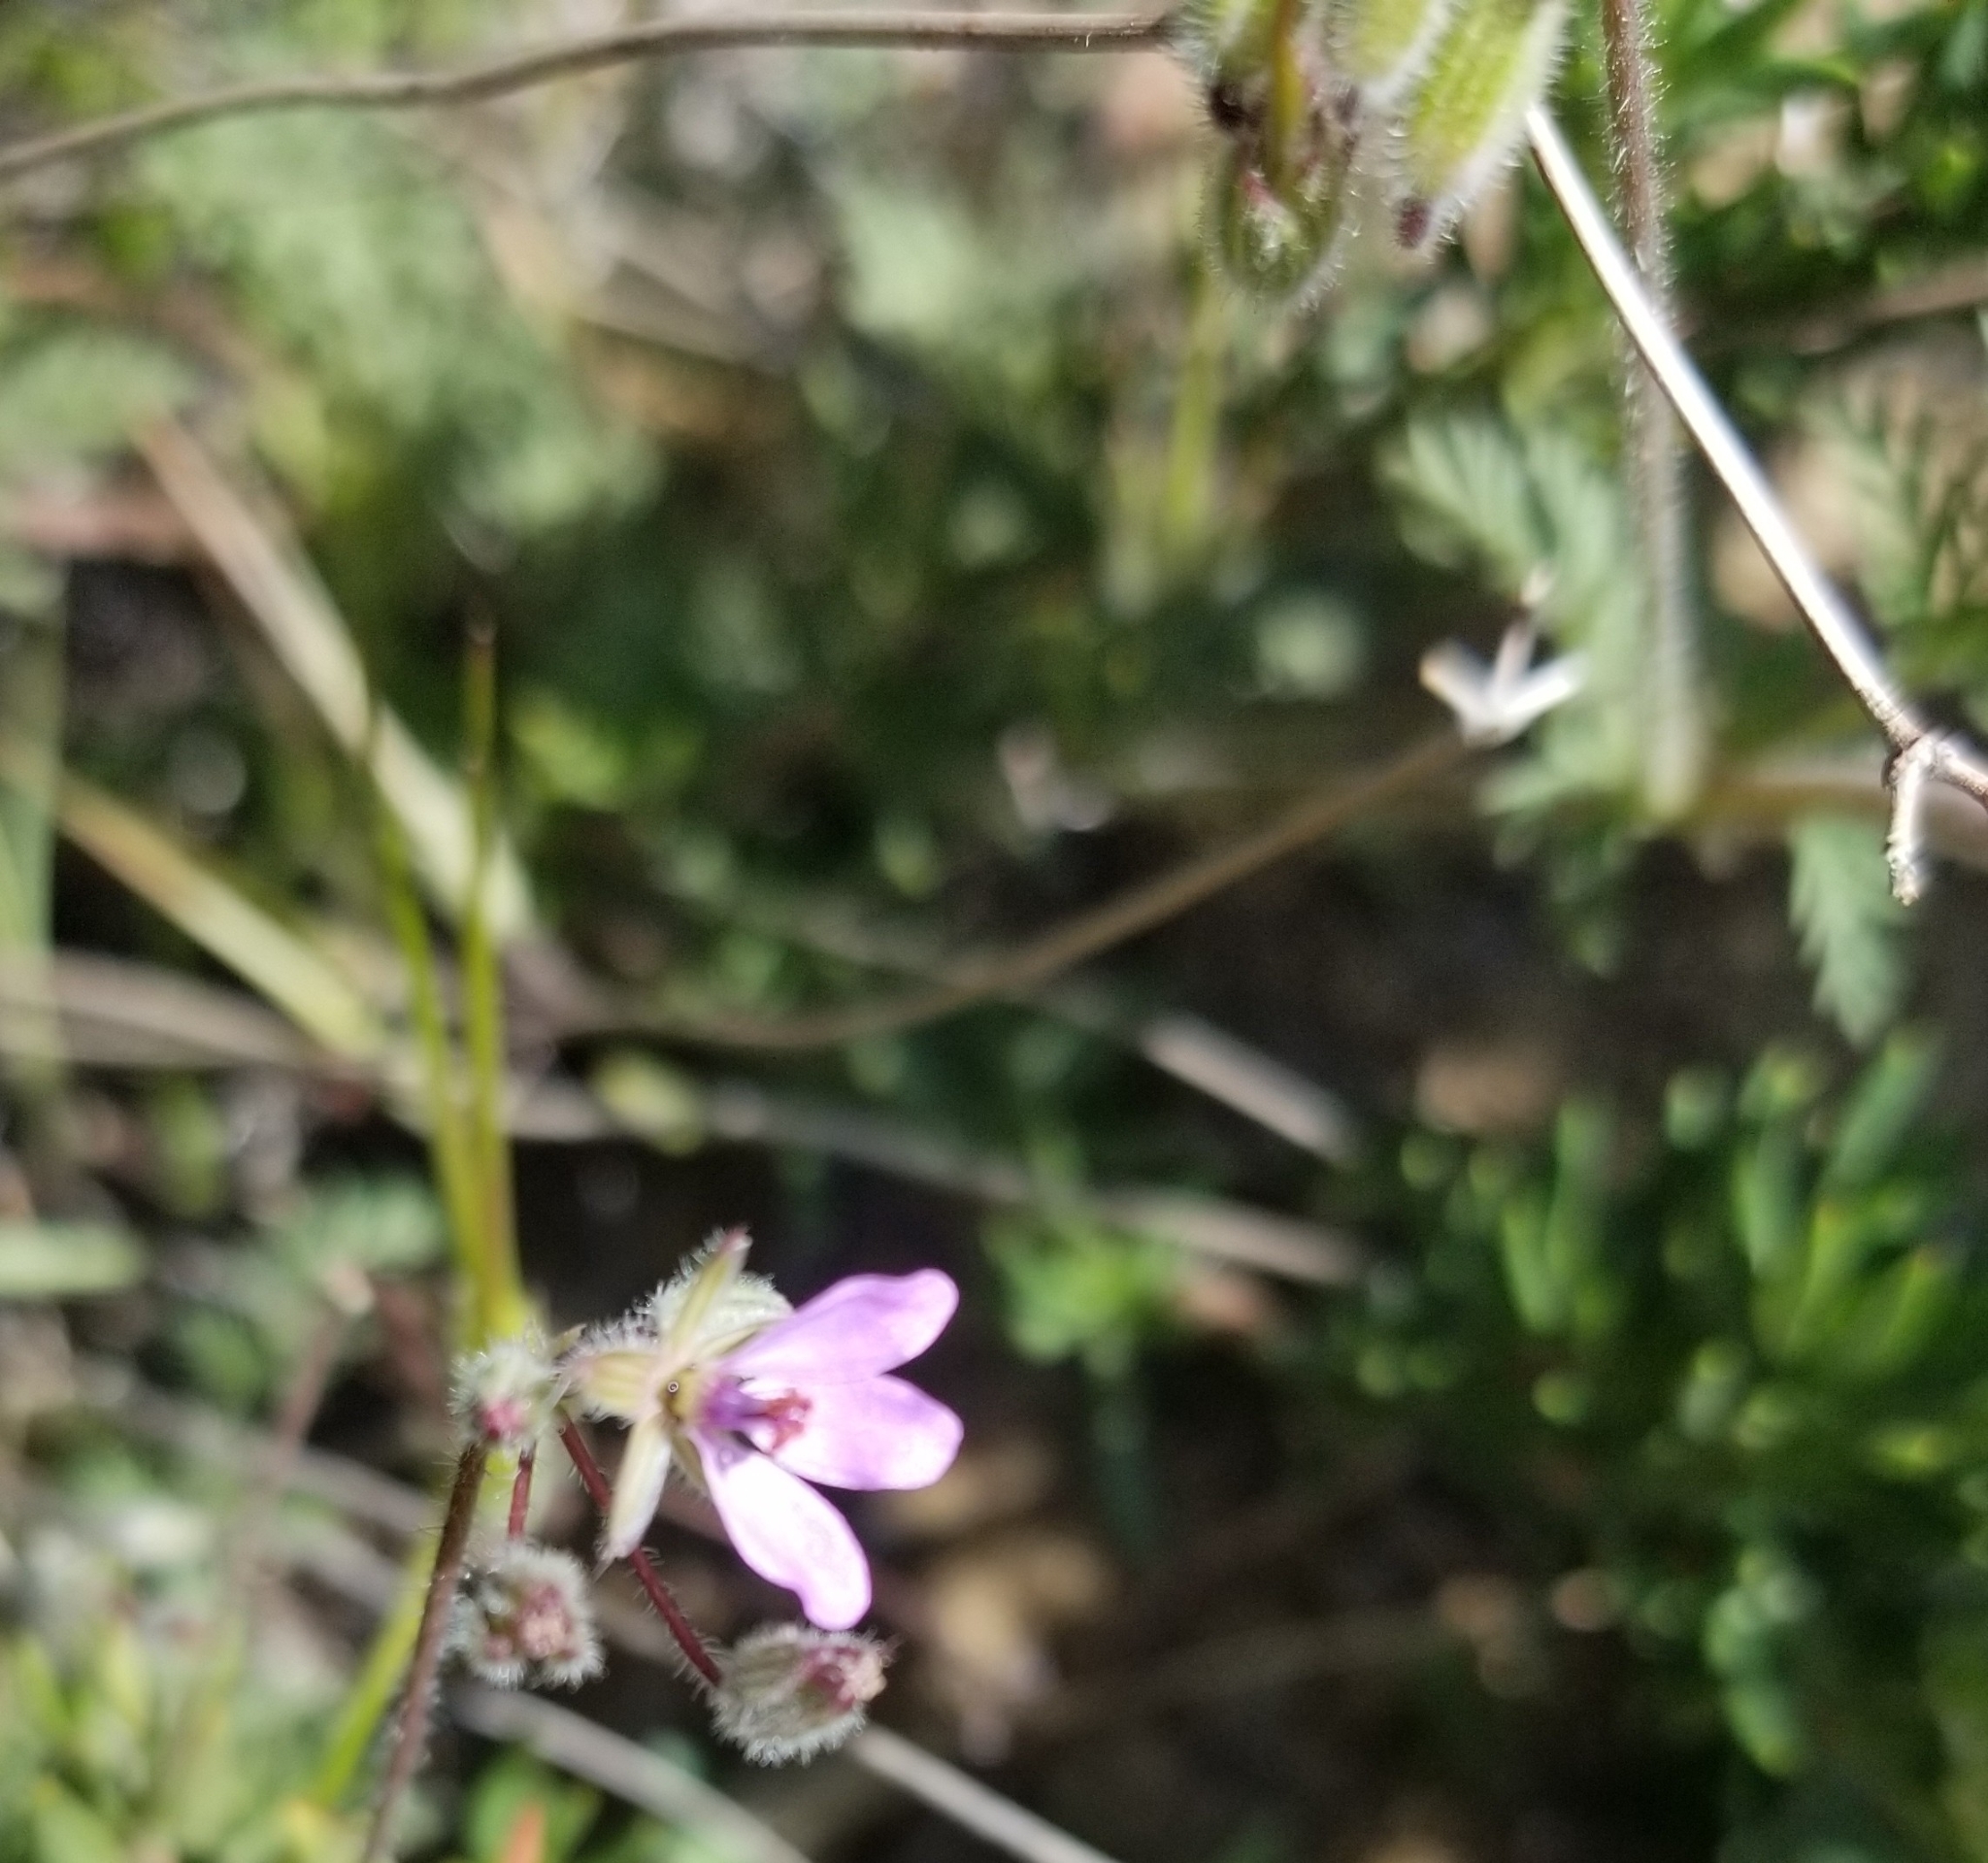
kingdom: Plantae
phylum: Tracheophyta
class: Magnoliopsida
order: Geraniales
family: Geraniaceae
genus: Erodium
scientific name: Erodium cicutarium
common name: Common stork's-bill
